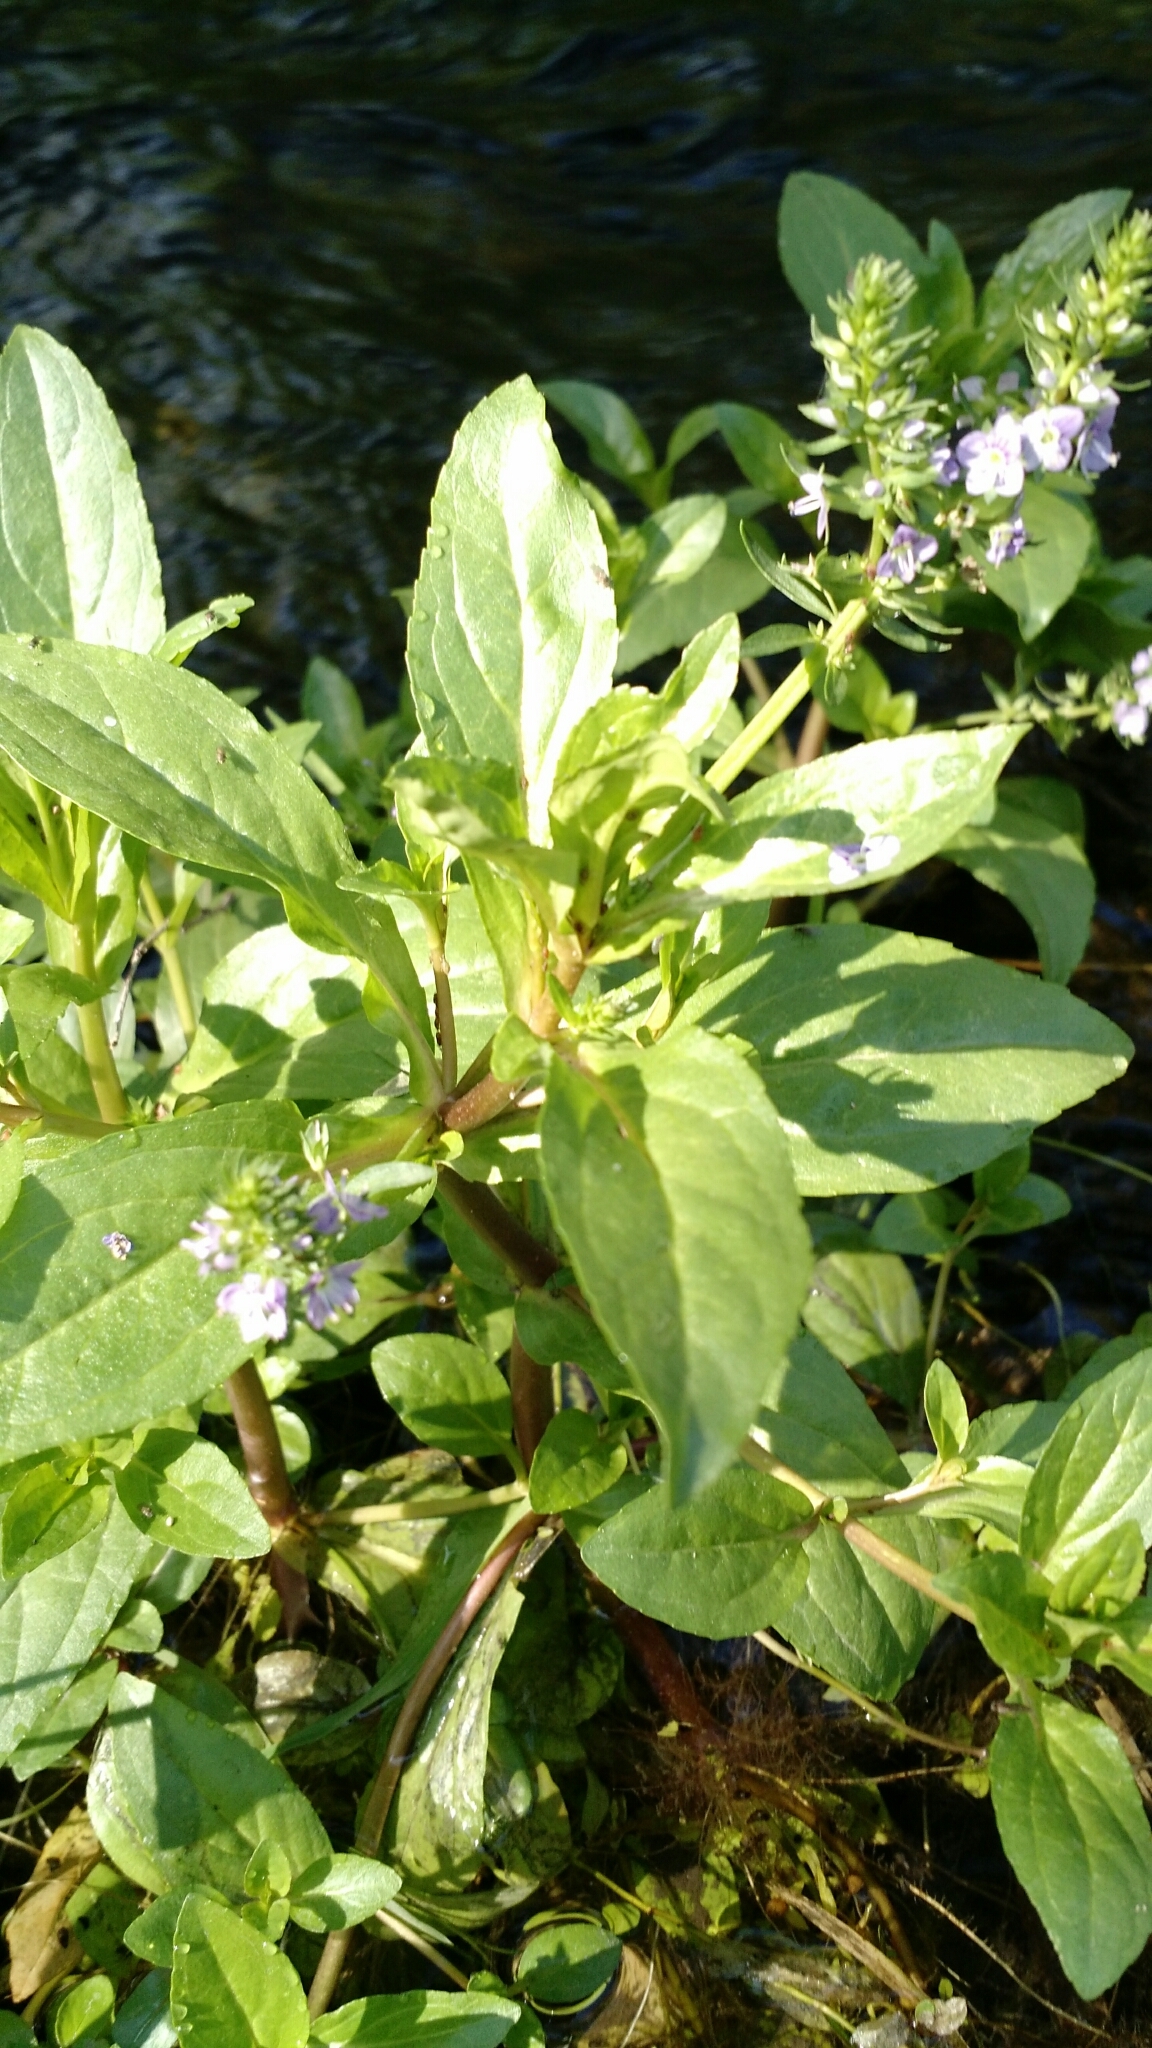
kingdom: Plantae
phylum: Tracheophyta
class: Magnoliopsida
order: Lamiales
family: Plantaginaceae
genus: Veronica
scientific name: Veronica anagallis-aquatica
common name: Water speedwell
